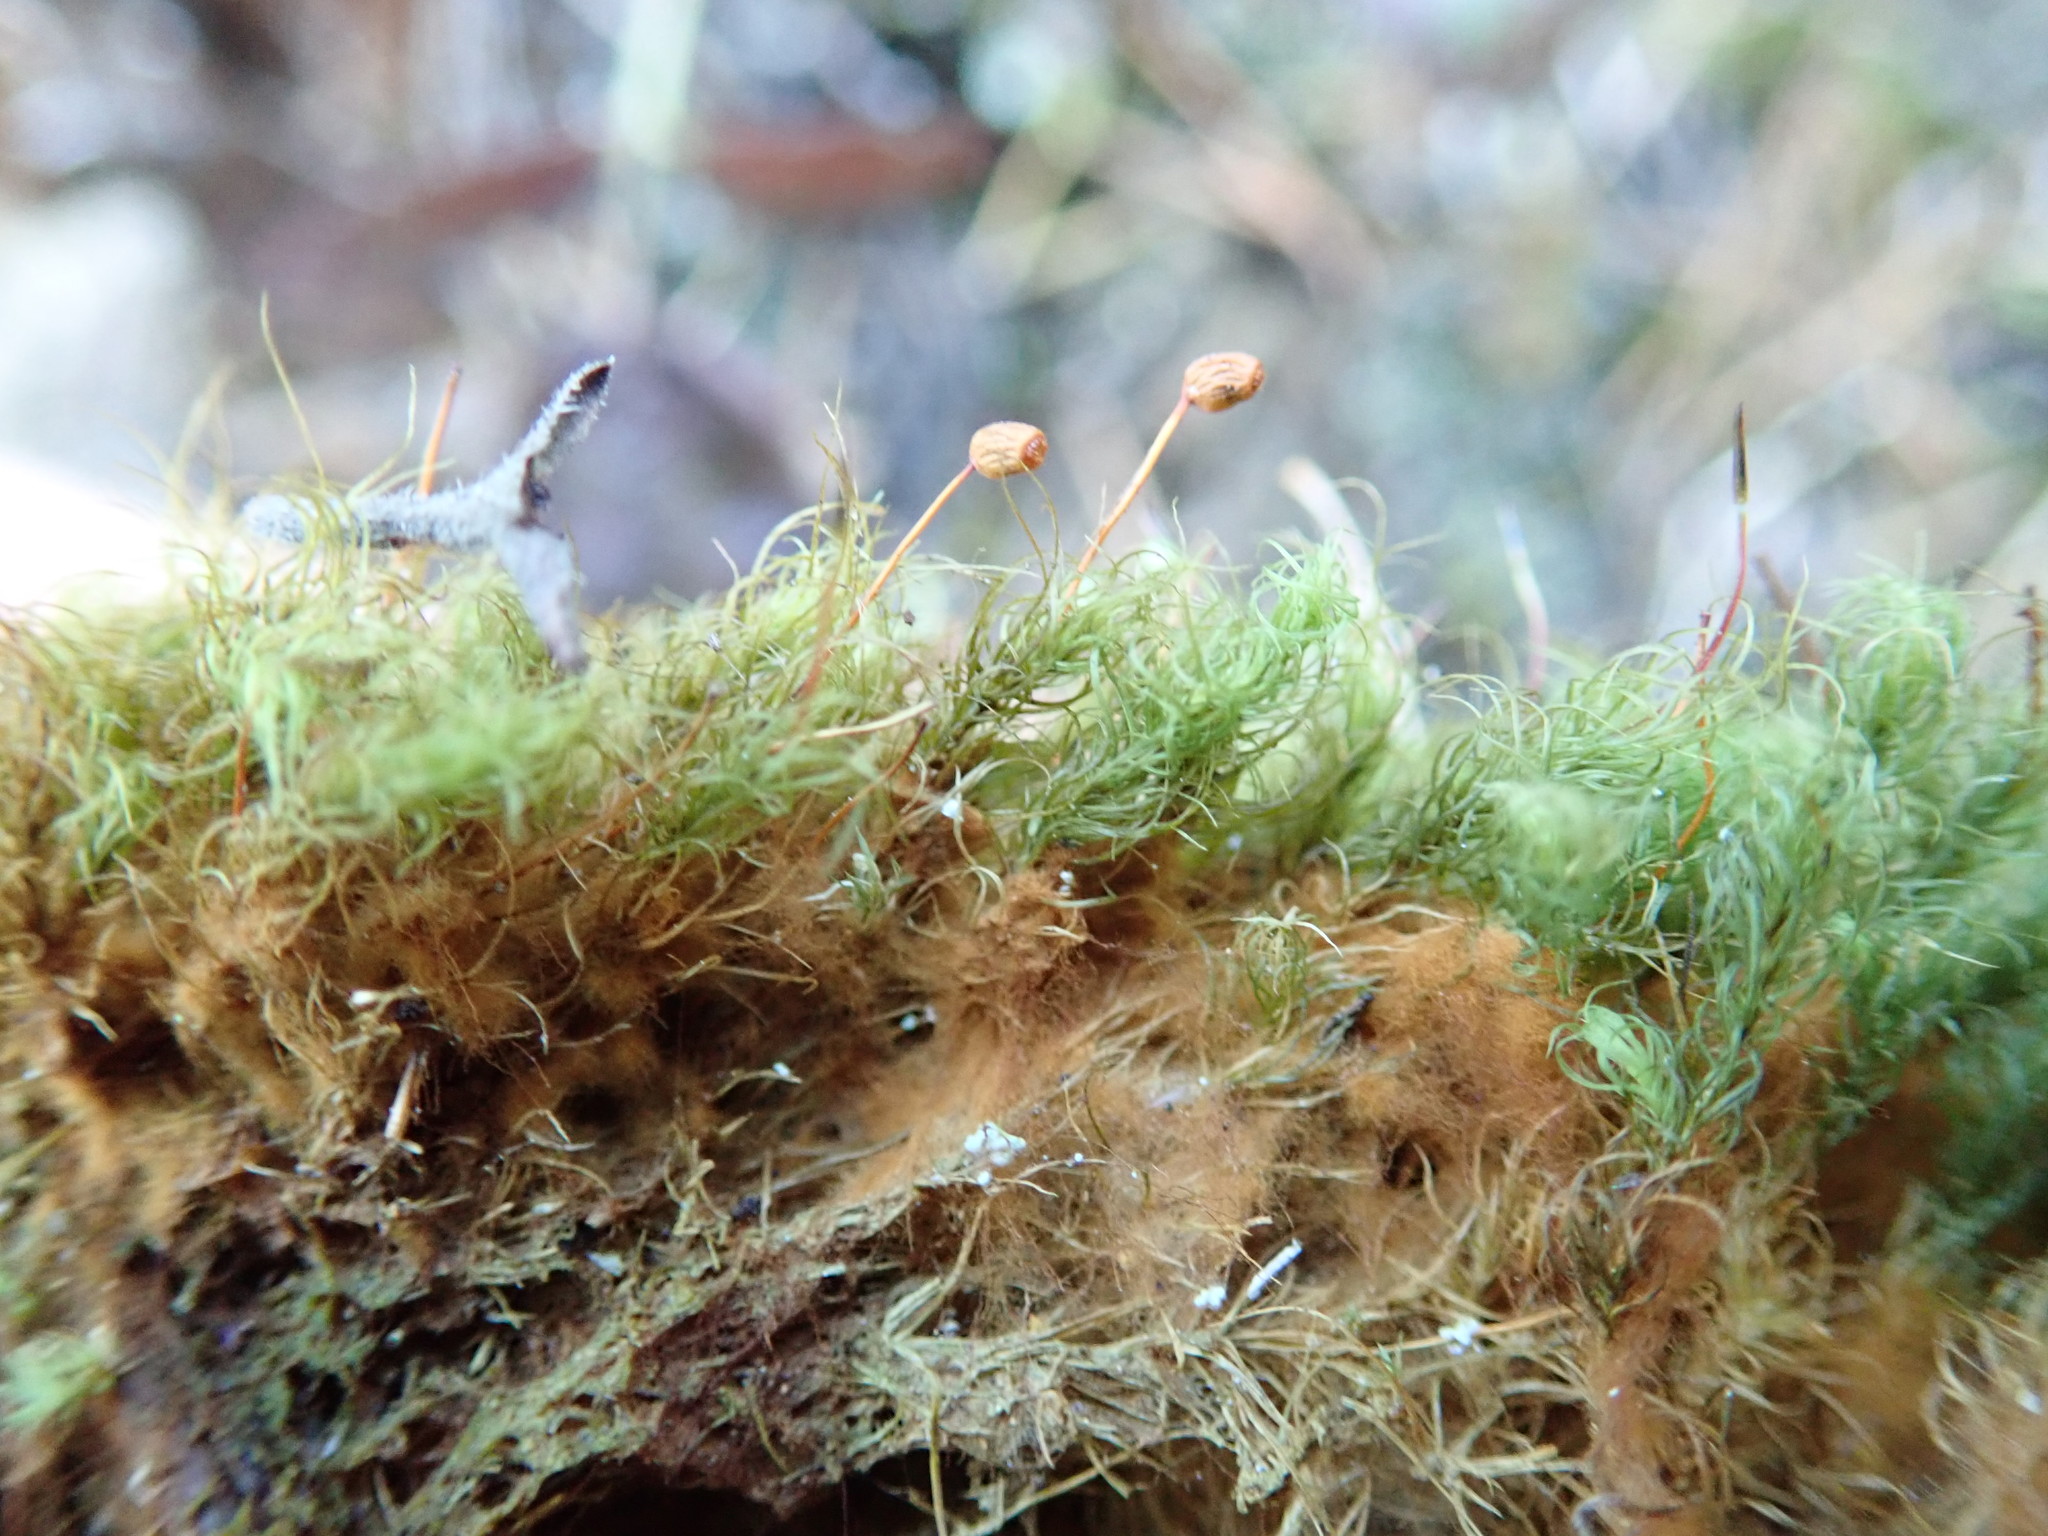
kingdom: Plantae
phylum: Bryophyta
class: Bryopsida
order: Bartramiales
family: Bartramiaceae
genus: Bartramia
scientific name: Bartramia ithyphylla
